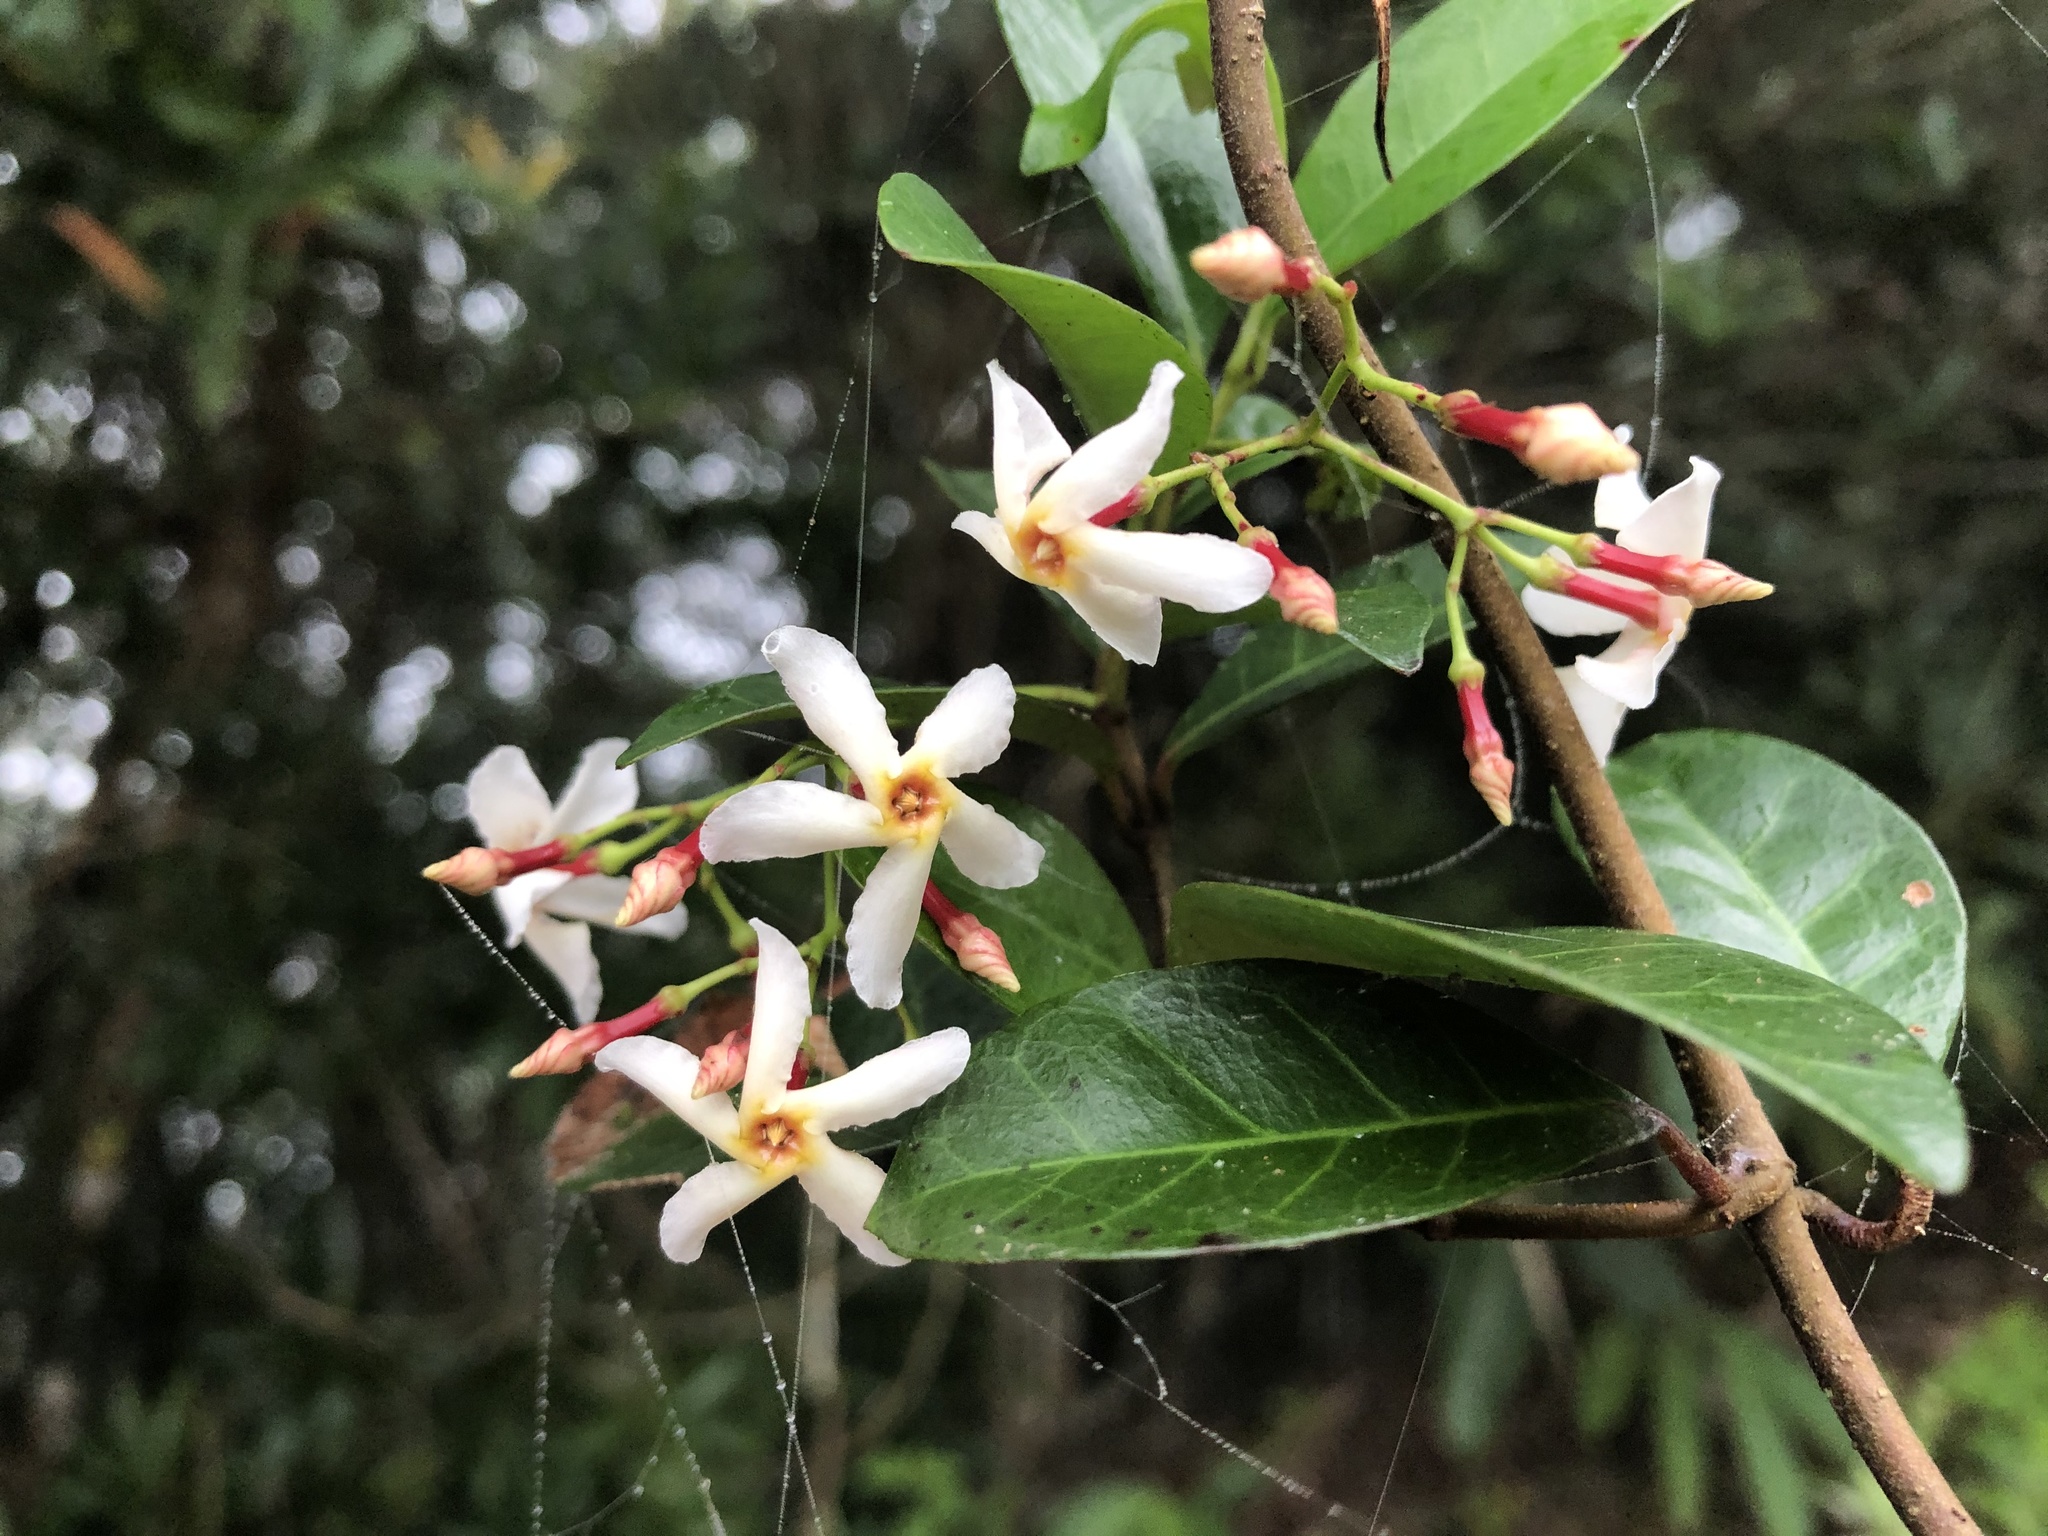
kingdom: Plantae
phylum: Tracheophyta
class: Magnoliopsida
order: Gentianales
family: Apocynaceae
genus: Trachelospermum
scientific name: Trachelospermum asiaticum
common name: Asiatic jasmine
